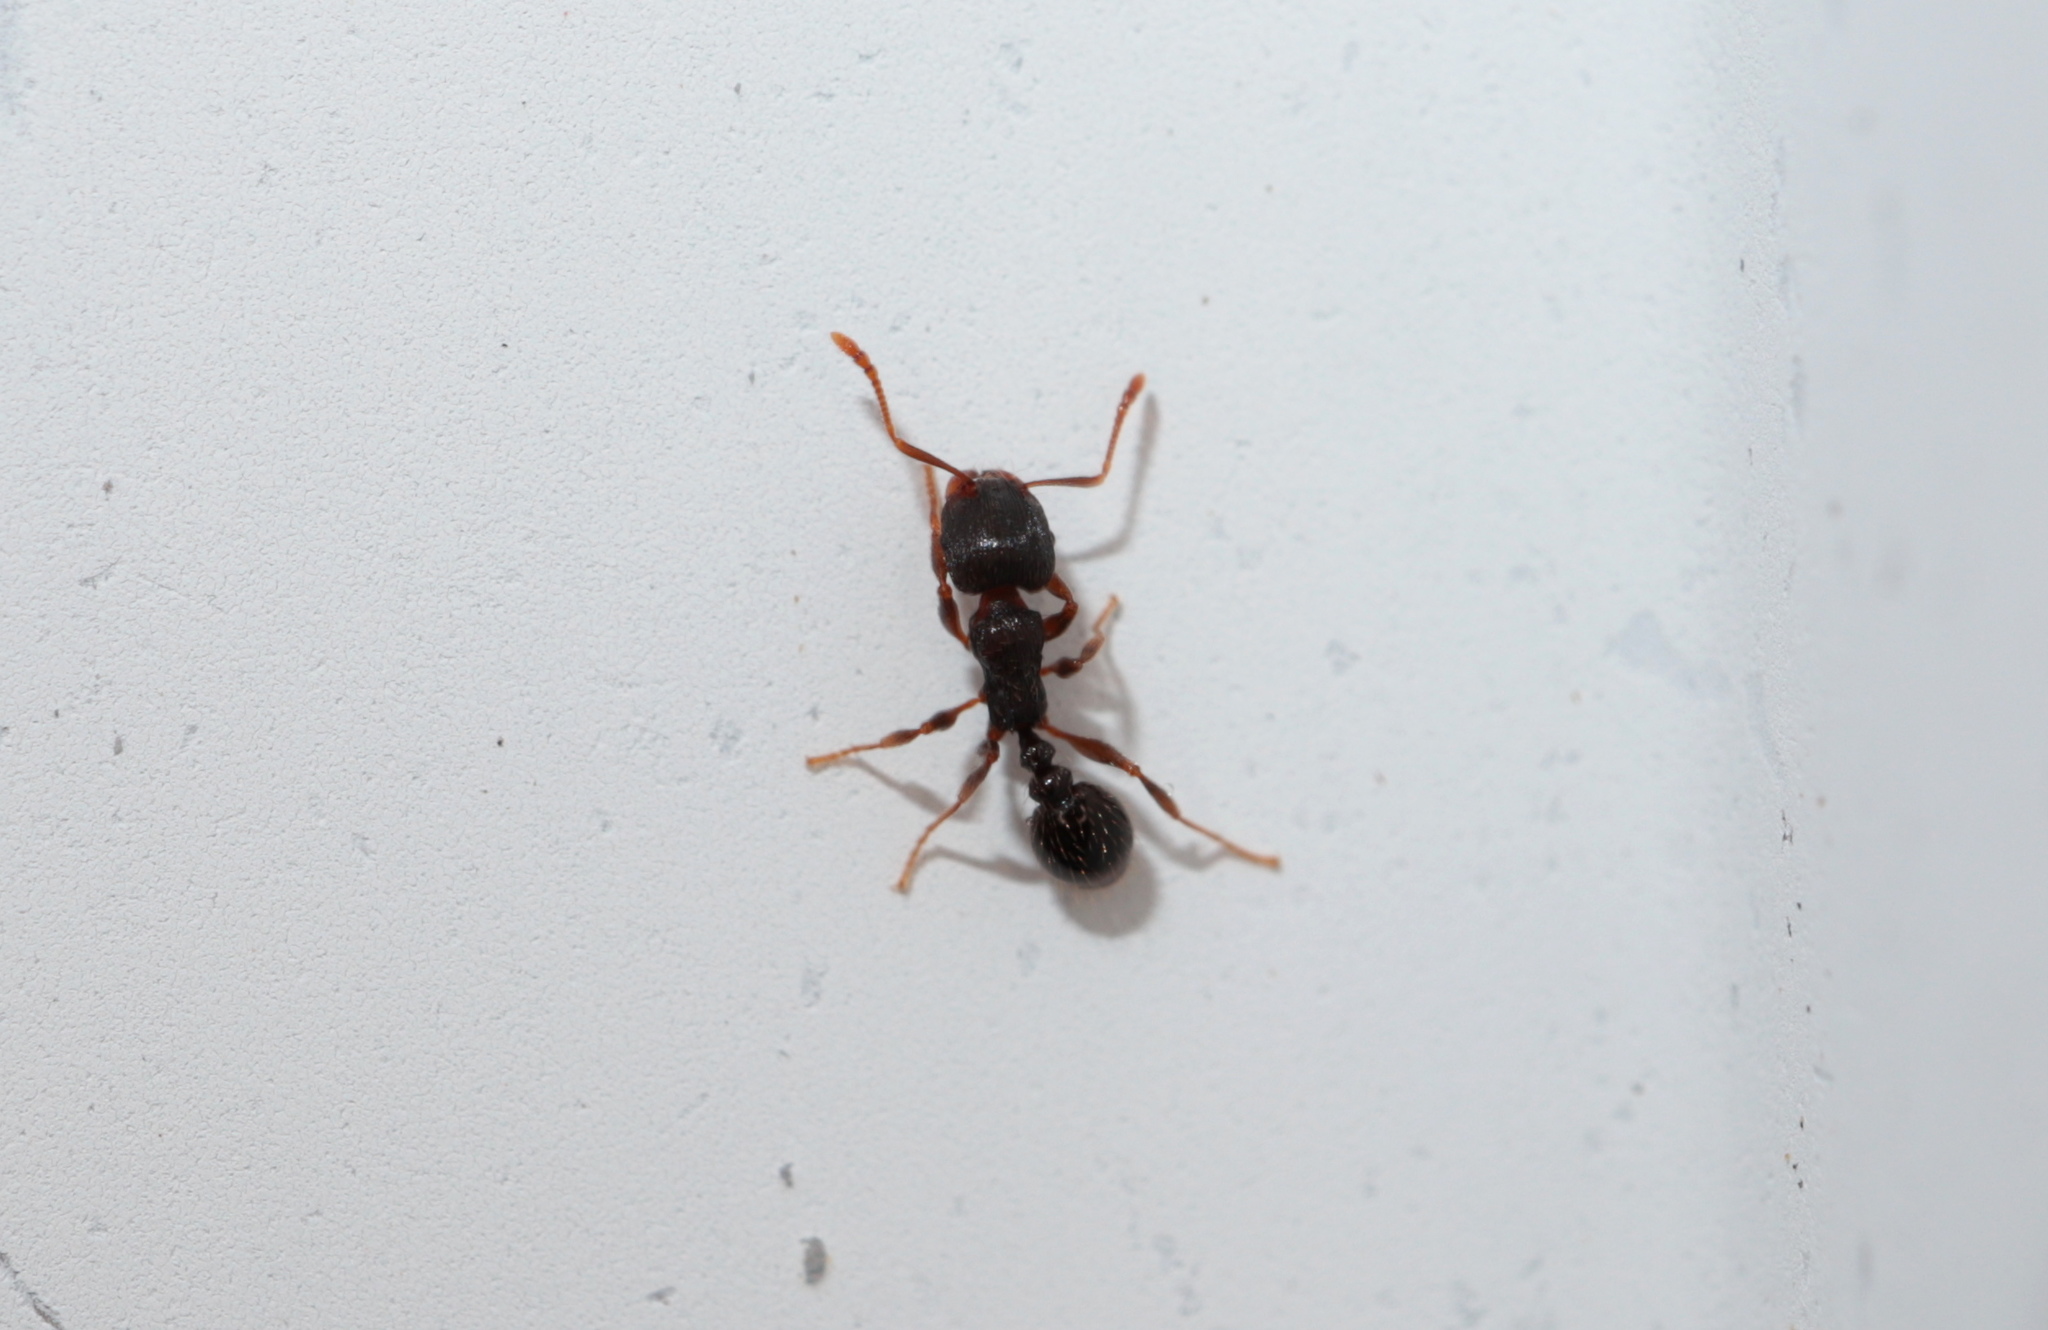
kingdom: Animalia
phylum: Arthropoda
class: Insecta
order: Hymenoptera
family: Formicidae
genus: Tetramorium
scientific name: Tetramorium immigrans
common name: Pavement ant
